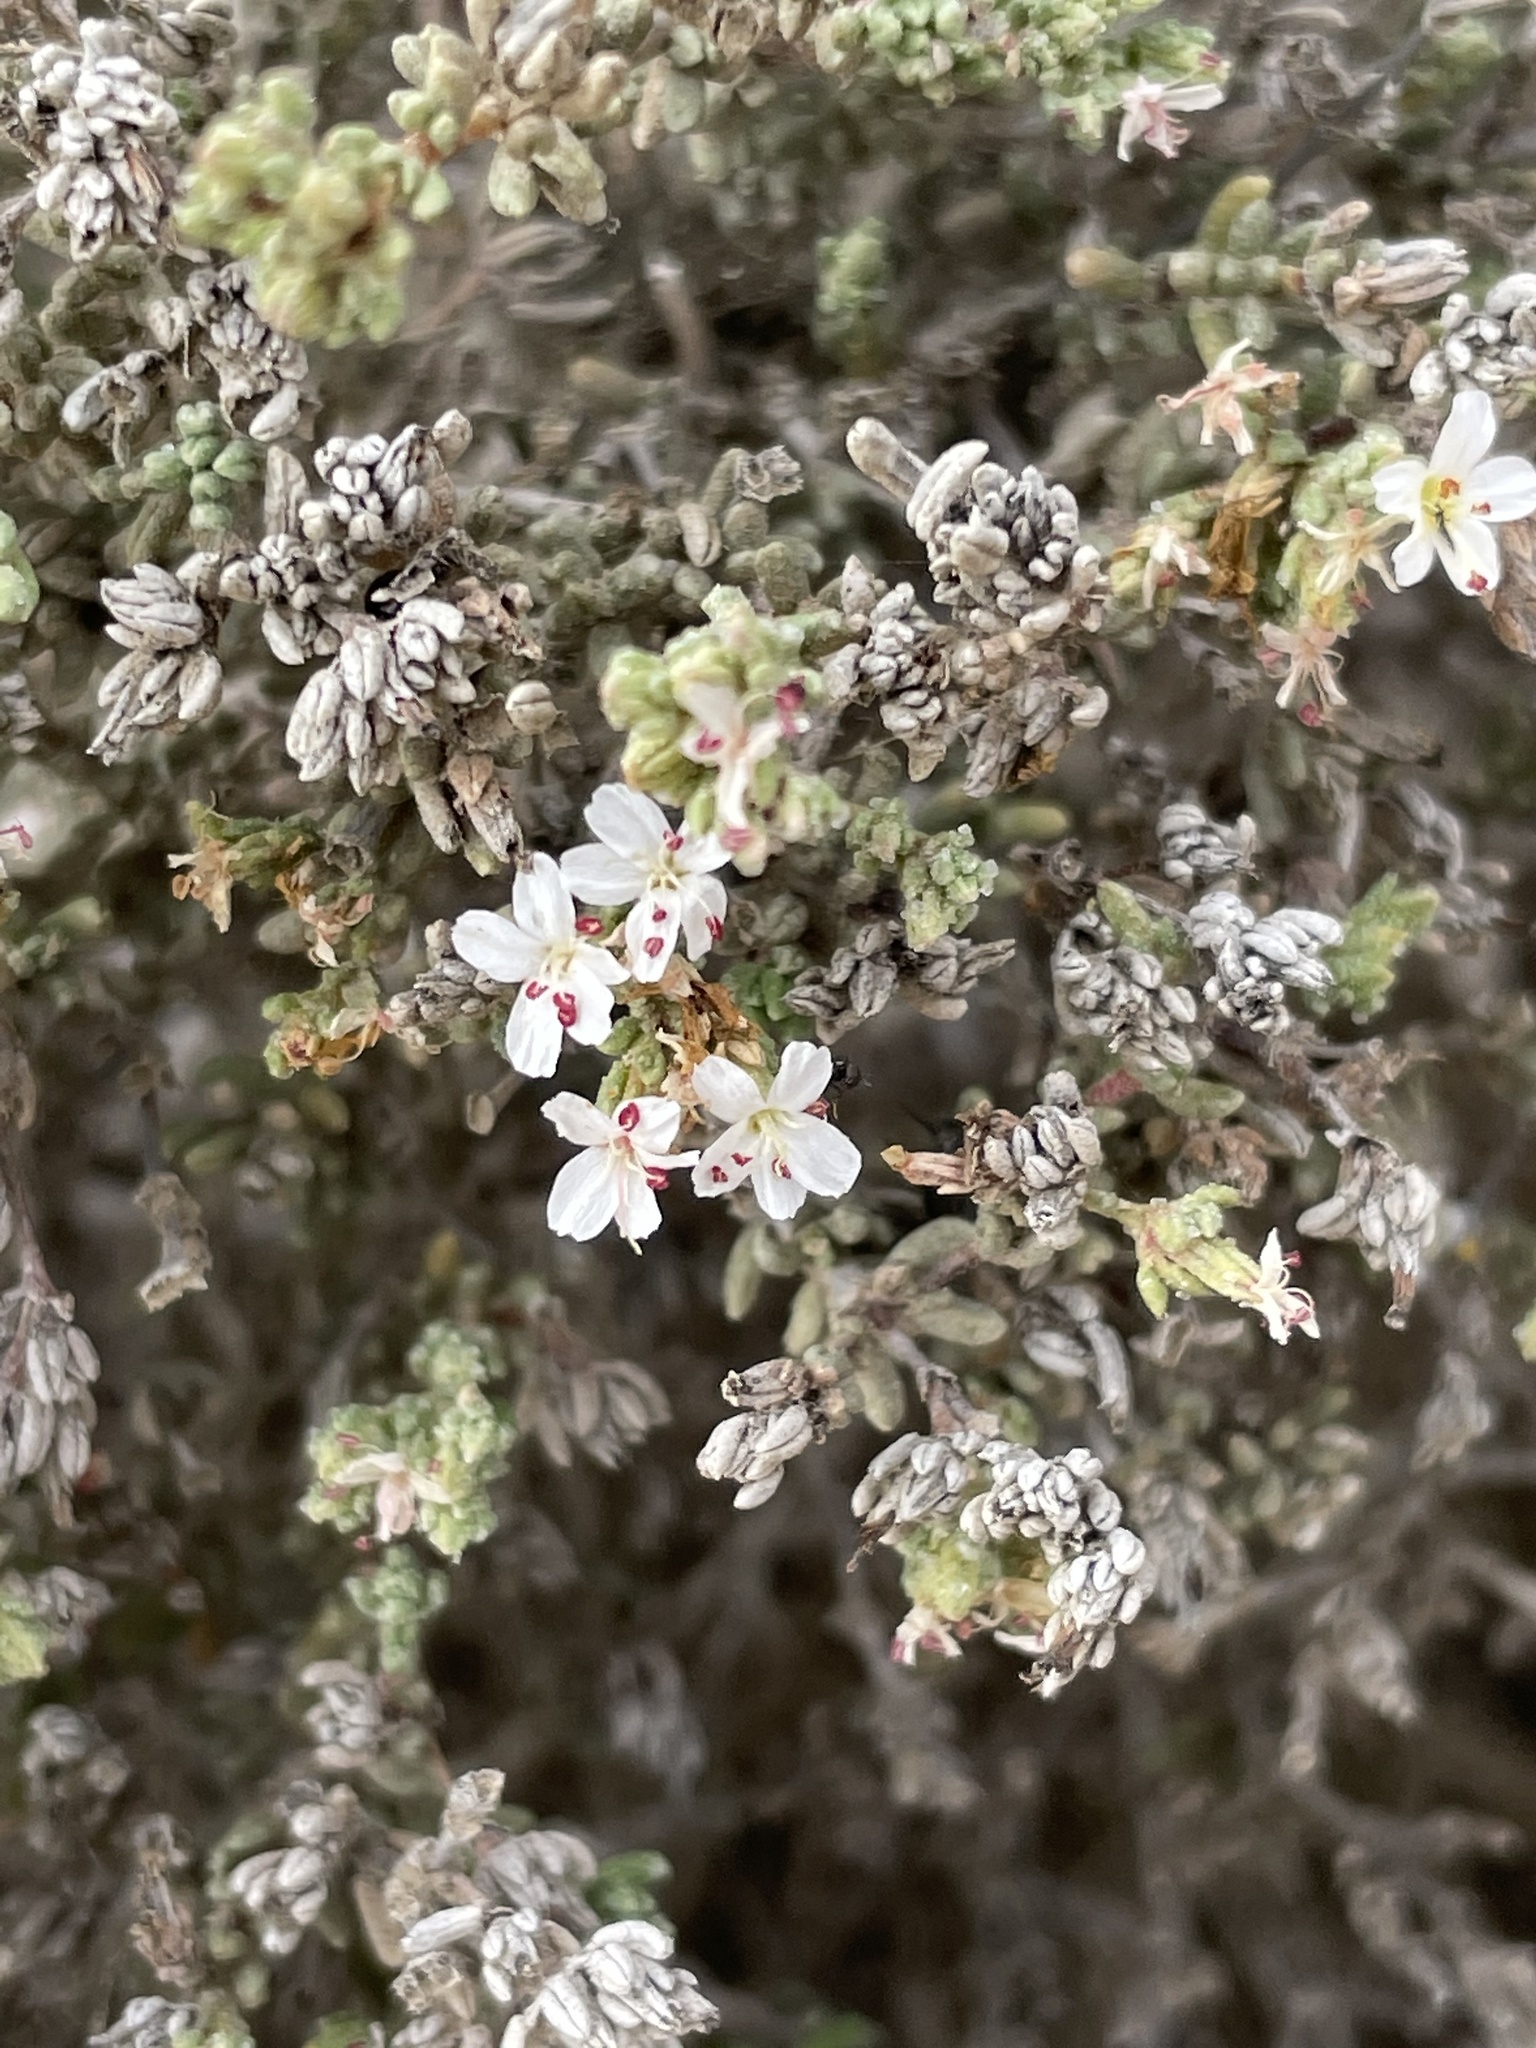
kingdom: Plantae
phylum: Tracheophyta
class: Magnoliopsida
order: Caryophyllales
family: Frankeniaceae
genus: Frankenia
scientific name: Frankenia palmeri
